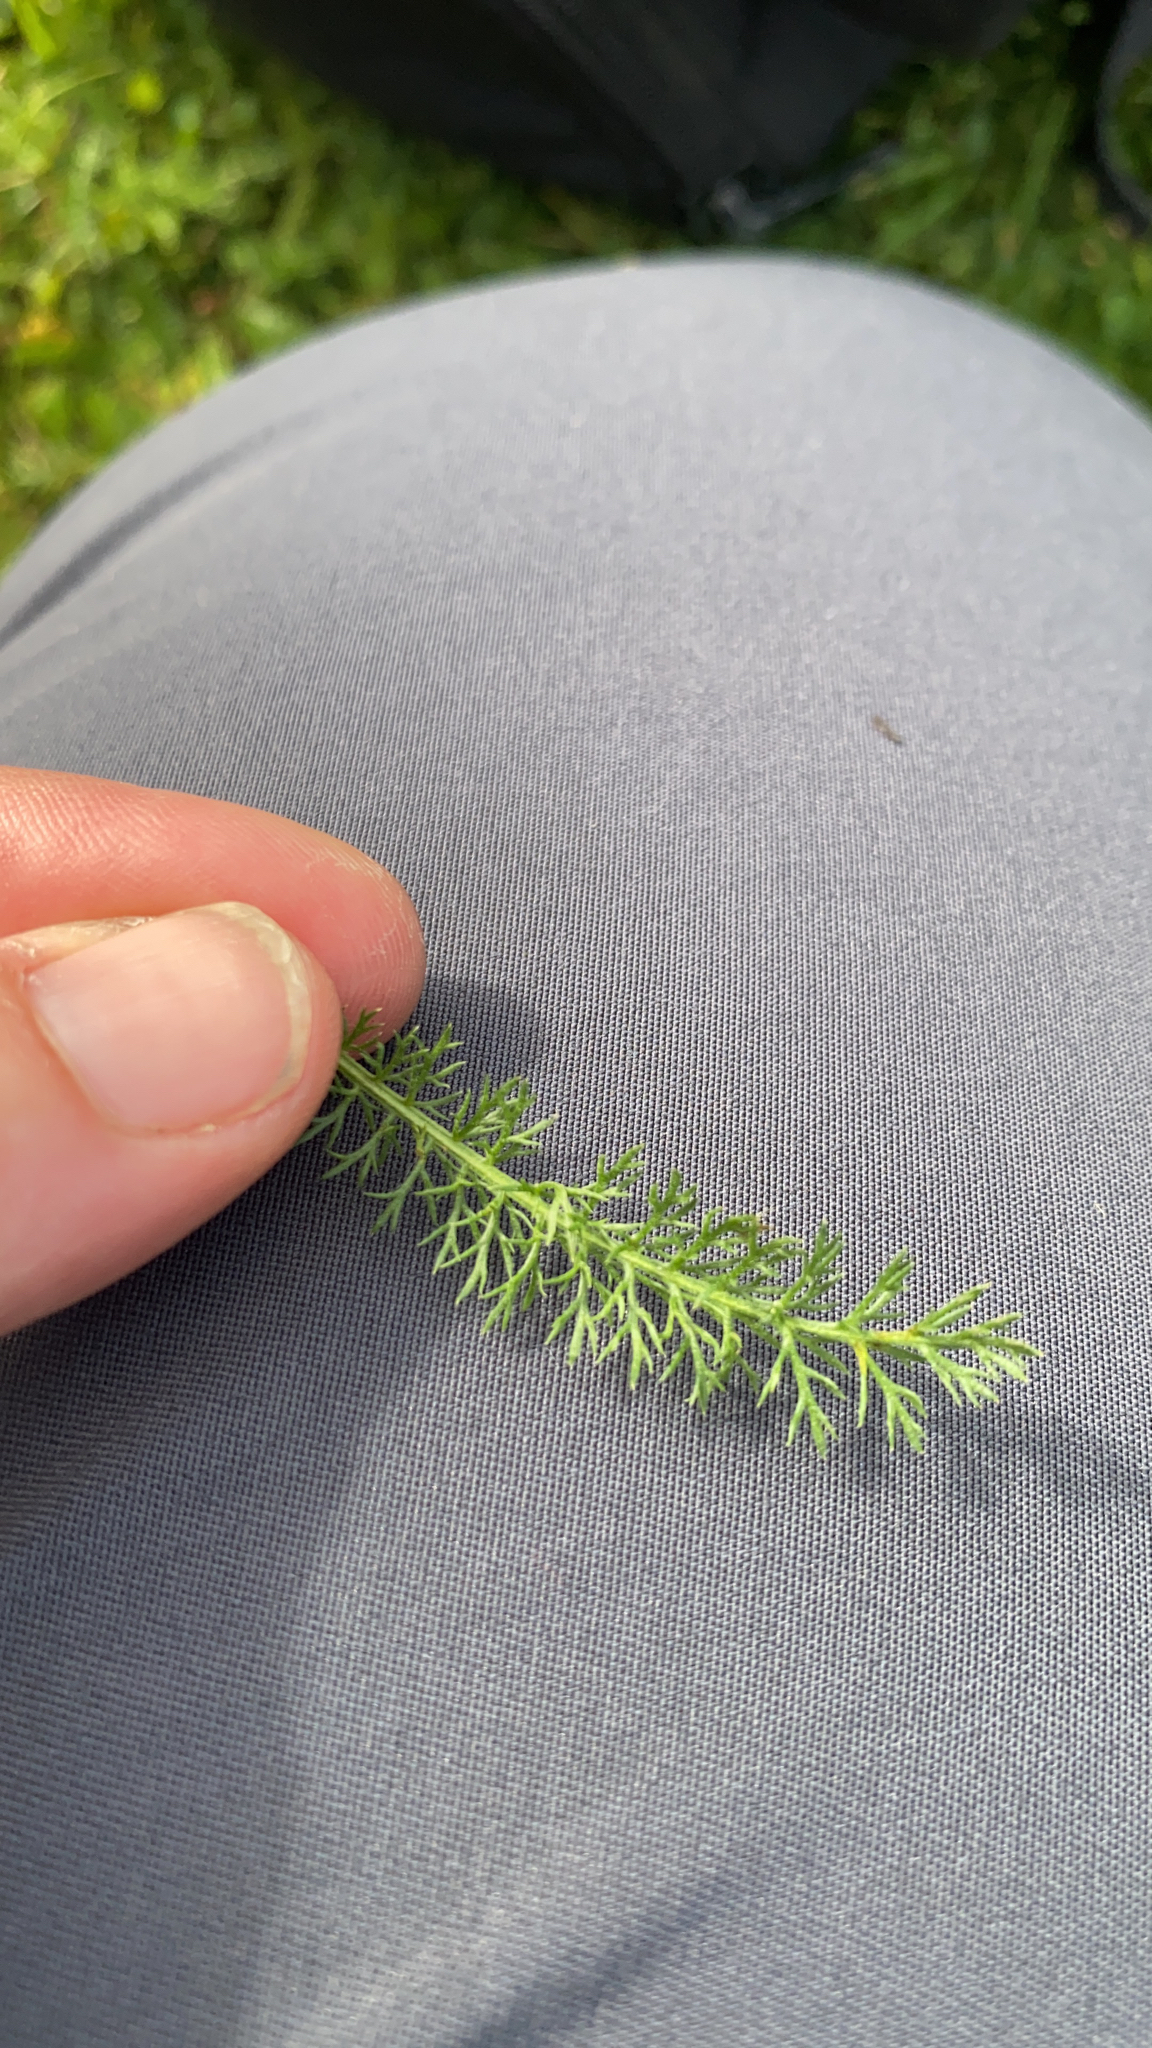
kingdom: Plantae
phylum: Tracheophyta
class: Magnoliopsida
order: Asterales
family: Asteraceae
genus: Achillea
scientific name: Achillea millefolium
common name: Yarrow
